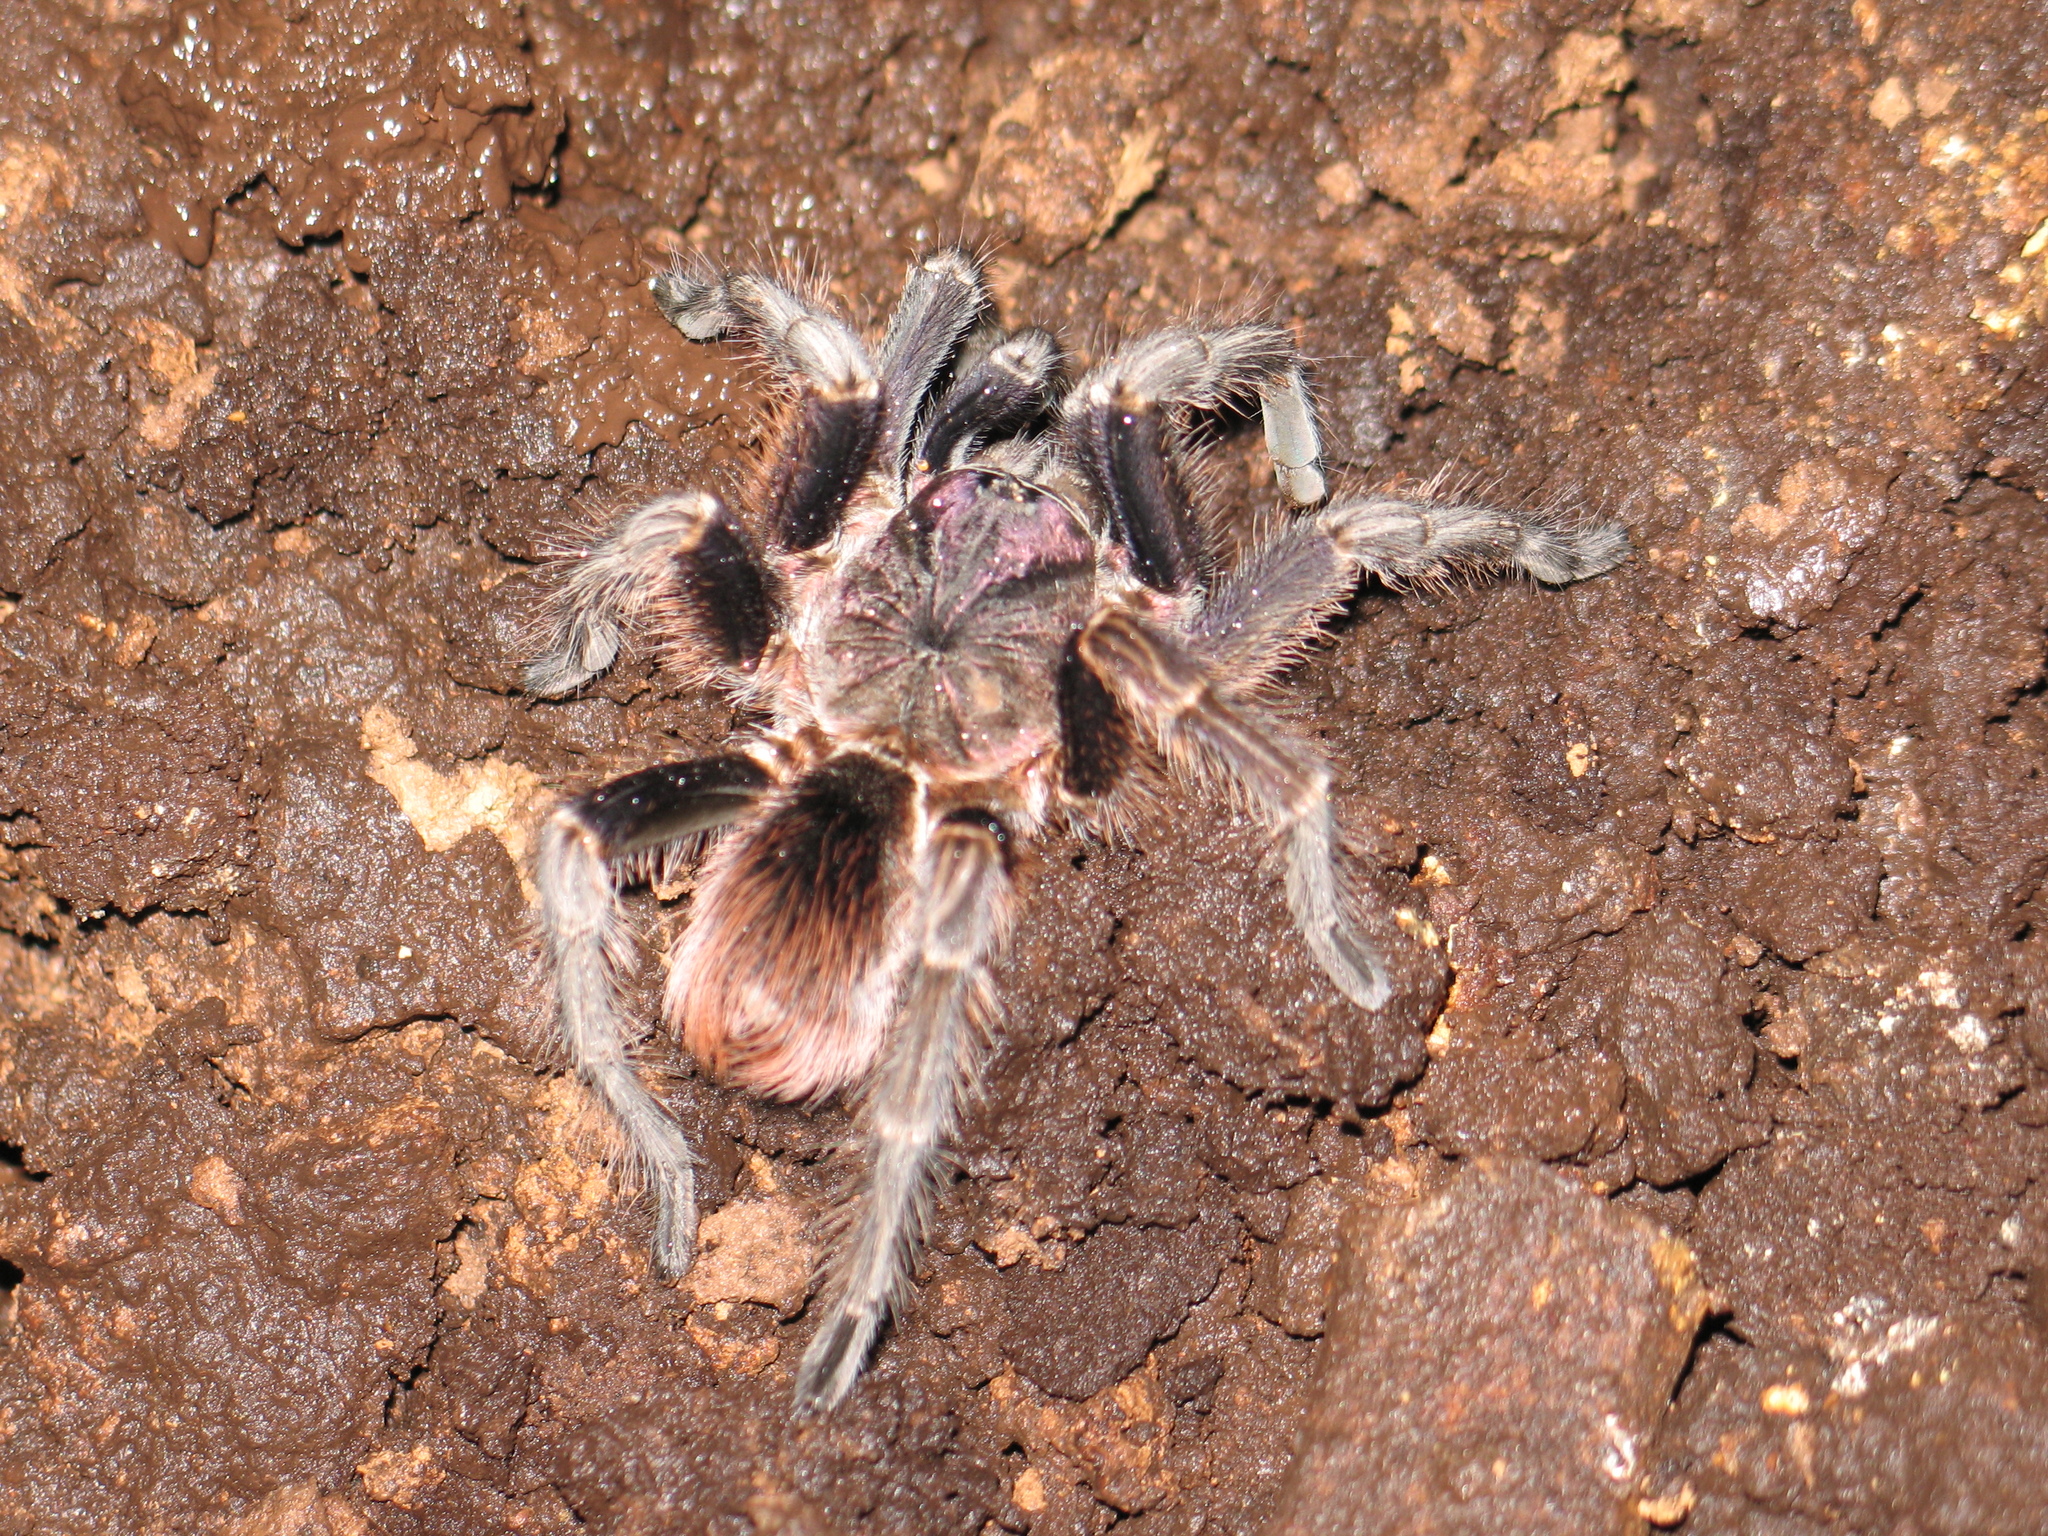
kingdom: Animalia
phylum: Arthropoda
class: Arachnida
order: Araneae
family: Theraphosidae
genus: Phormictopus
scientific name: Phormictopus melodermus
